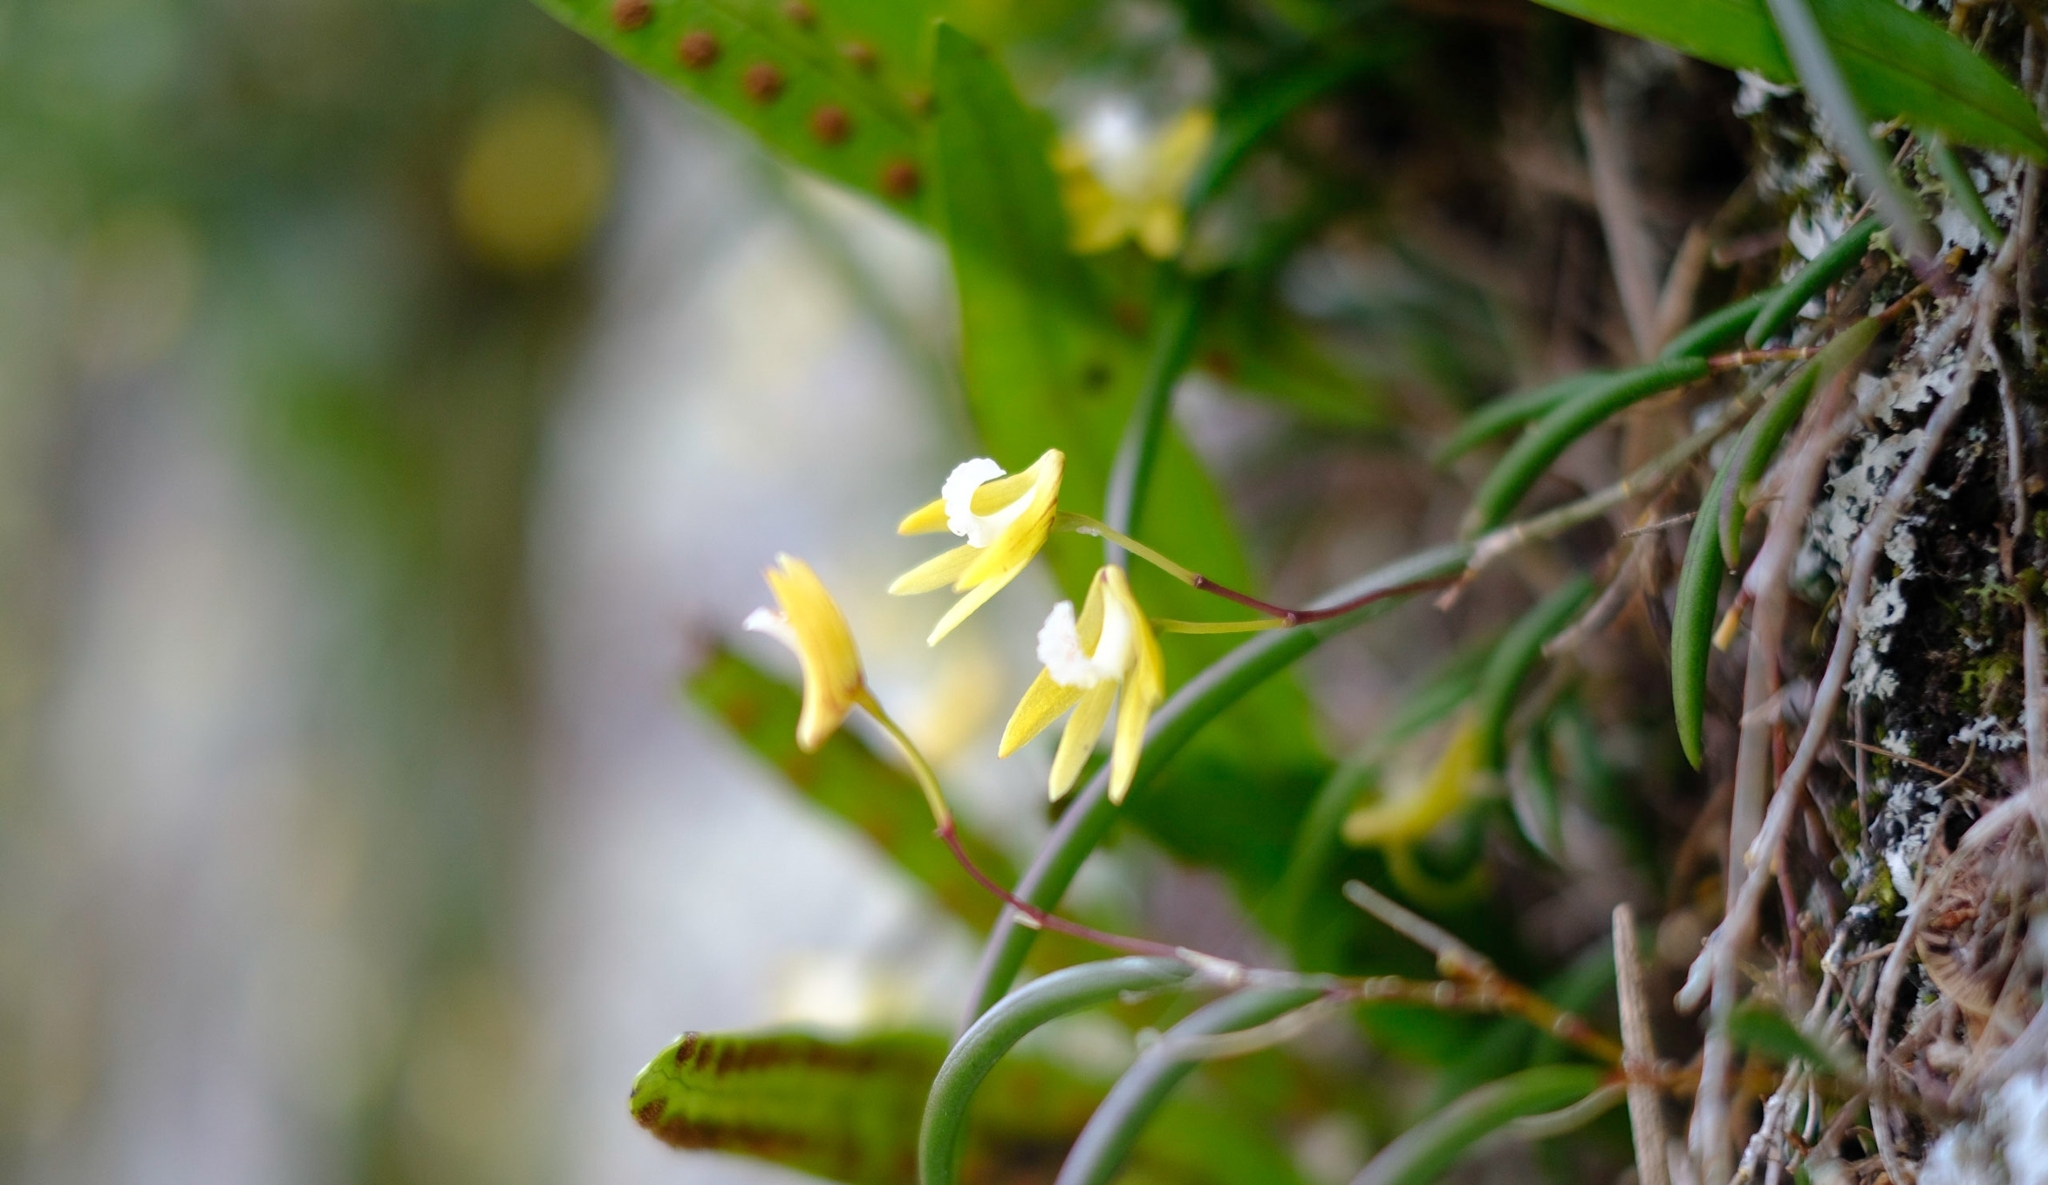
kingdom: Plantae
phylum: Tracheophyta
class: Liliopsida
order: Asparagales
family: Orchidaceae
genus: Dendrobium
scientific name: Dendrobium striolatum
